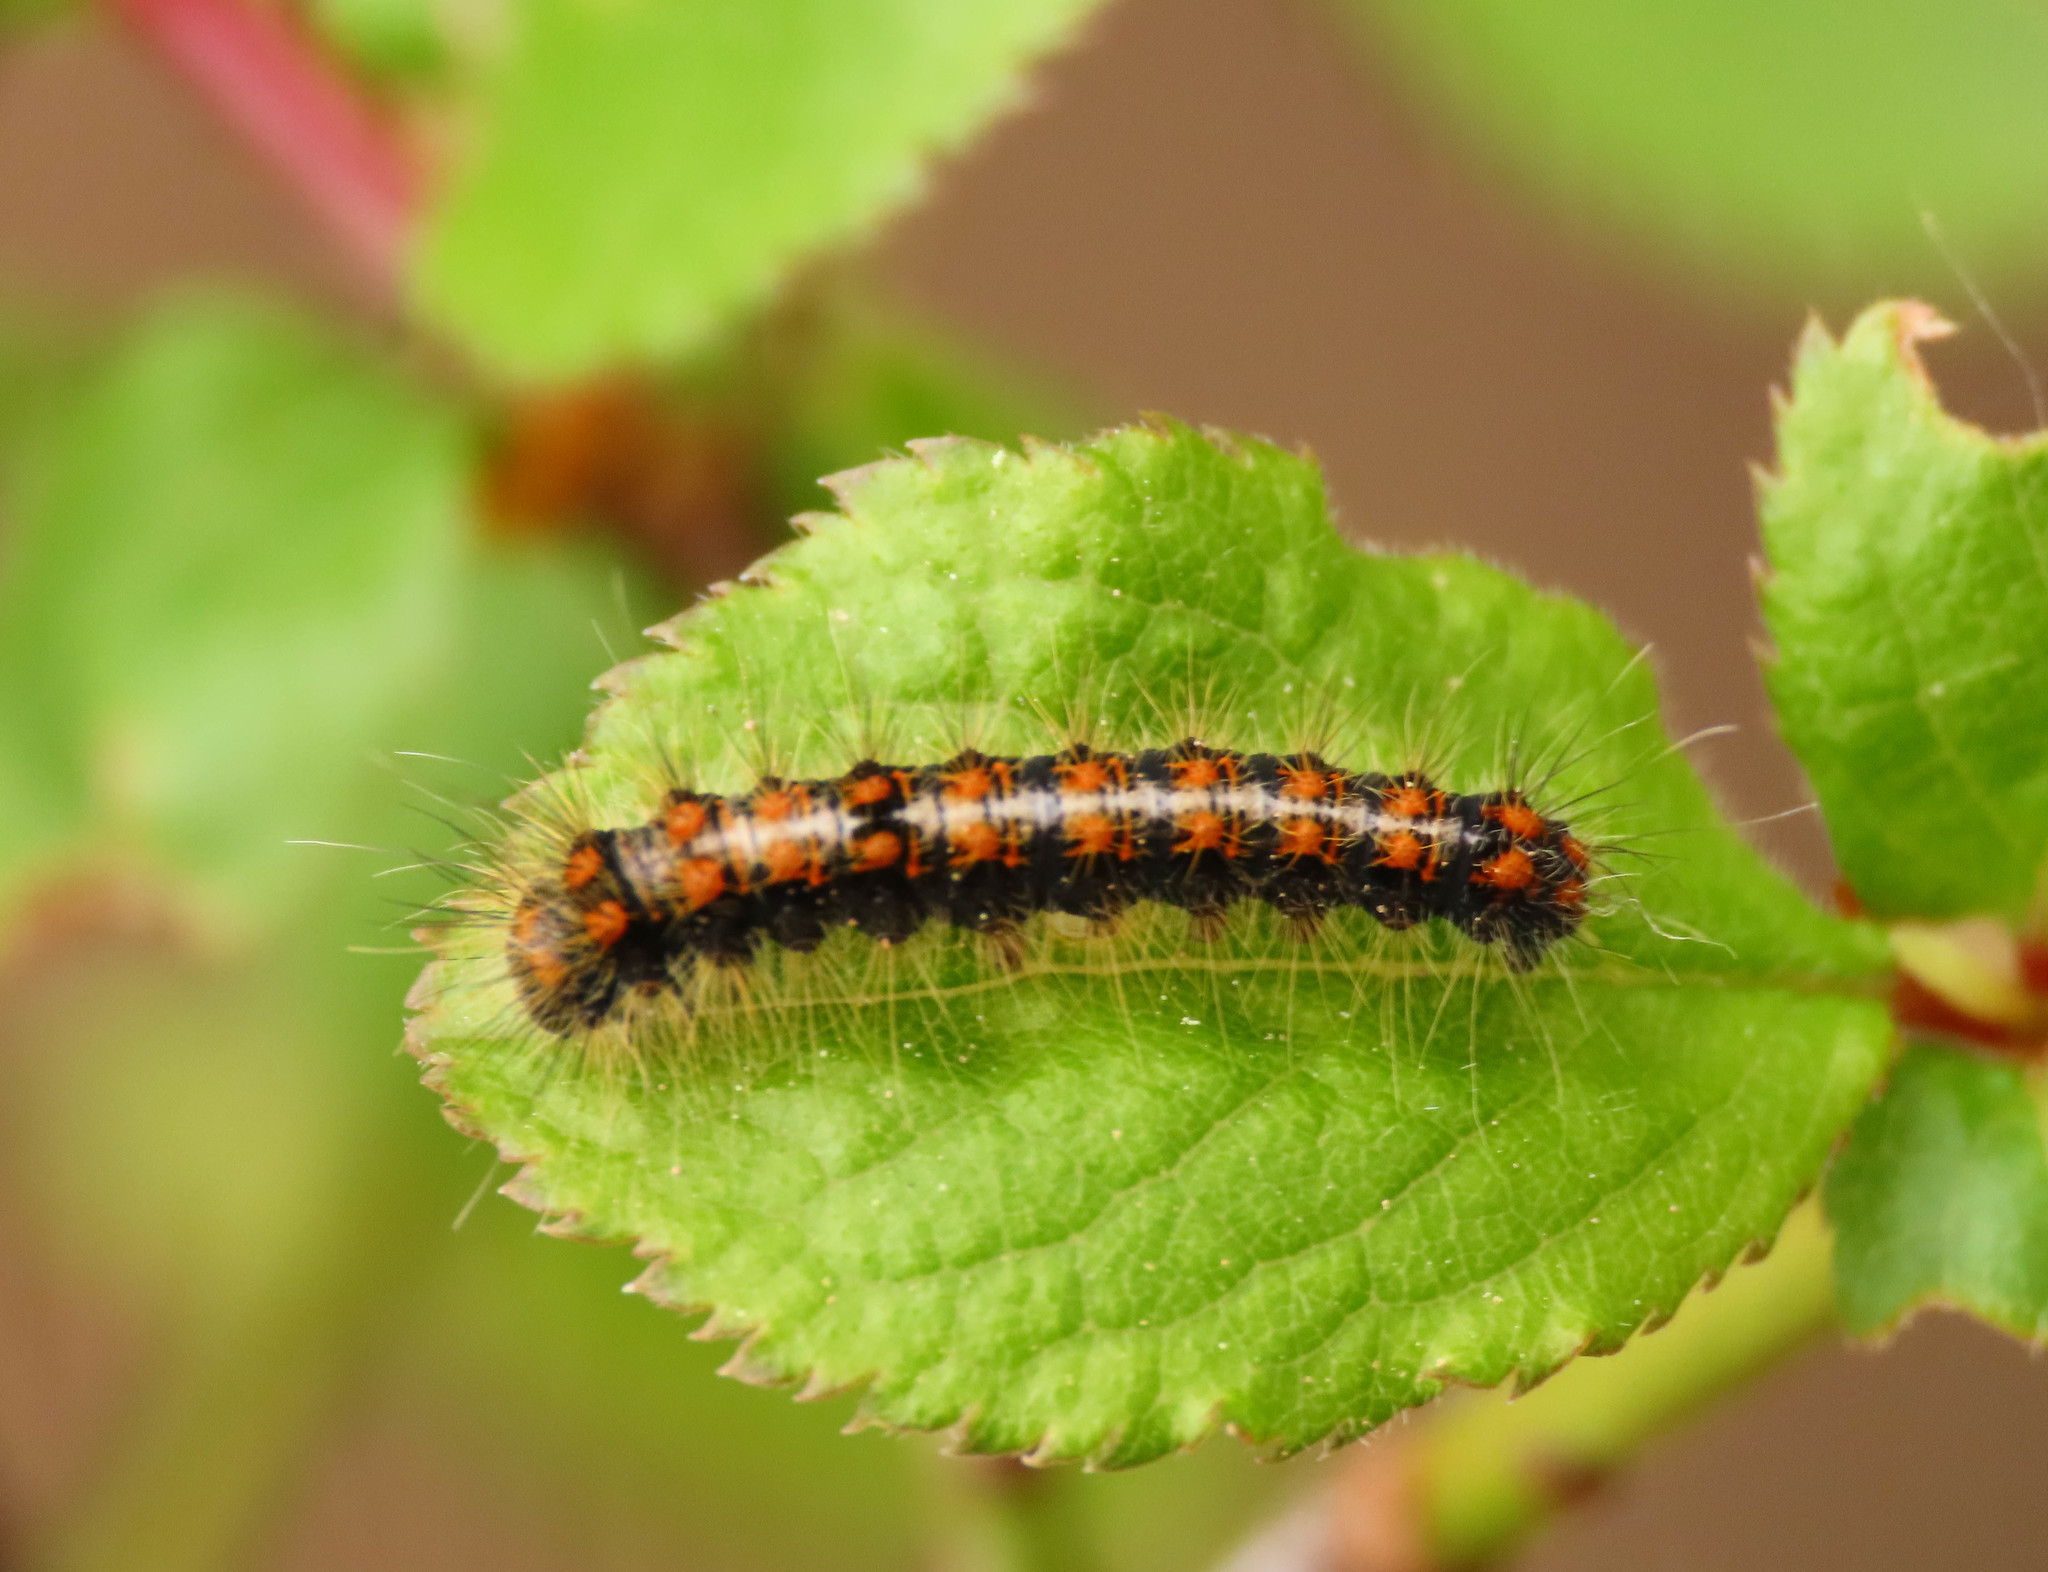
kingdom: Animalia
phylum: Arthropoda
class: Insecta
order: Lepidoptera
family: Lasiocampidae
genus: Trichiura
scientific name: Trichiura crataegi
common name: Pale eggar
